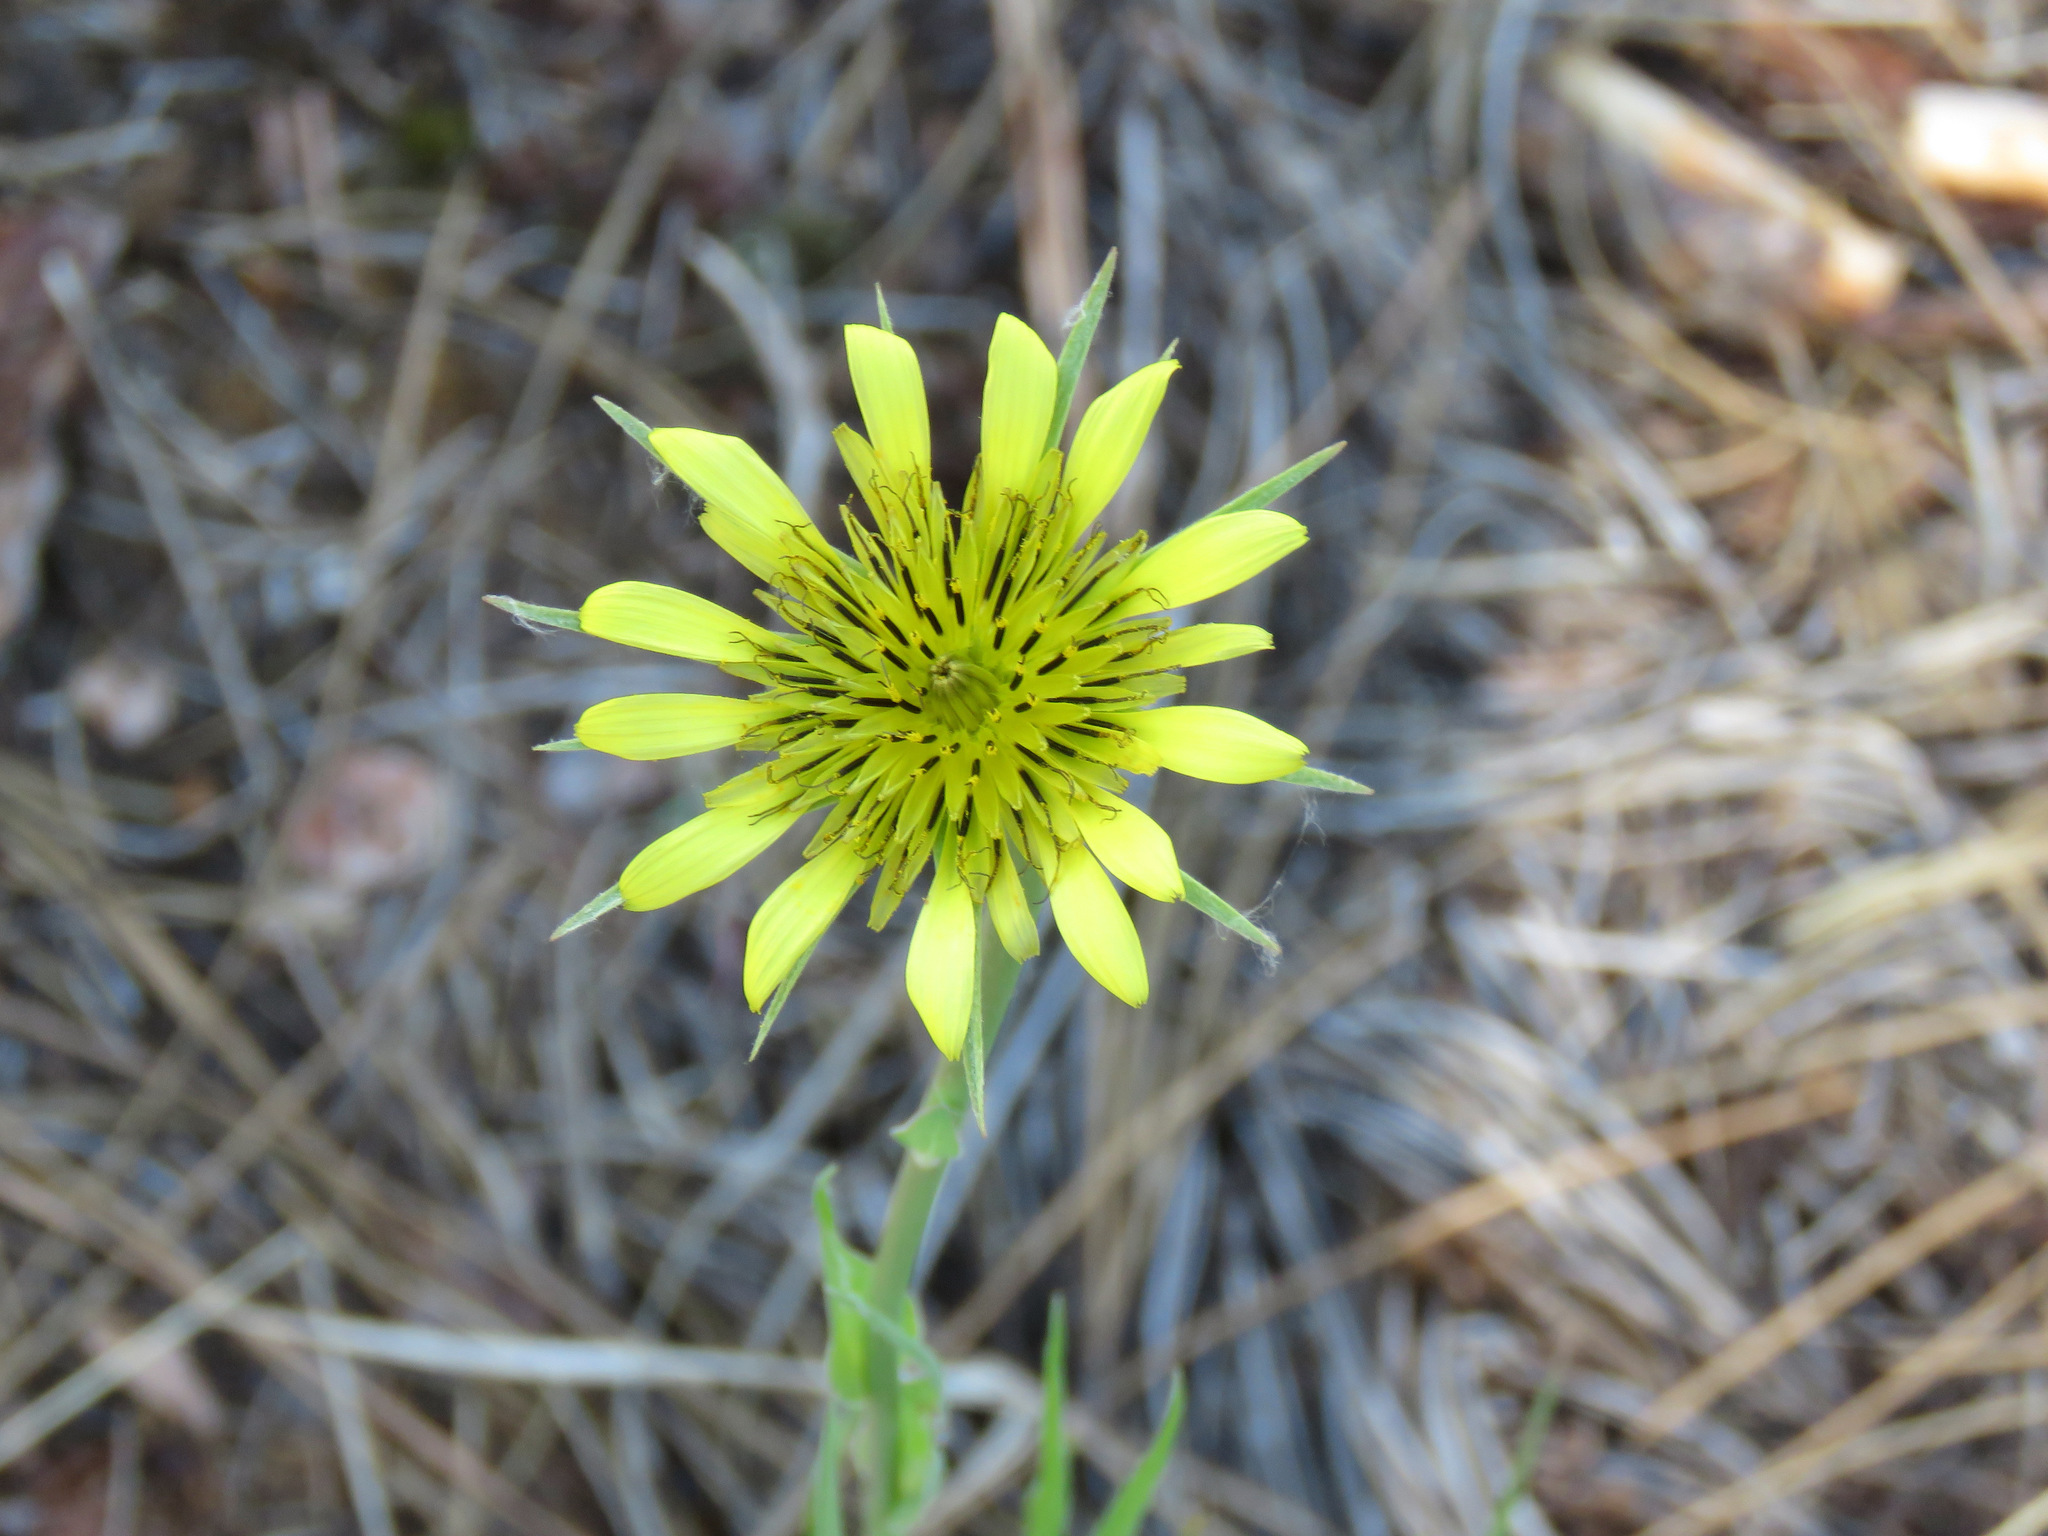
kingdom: Plantae
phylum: Tracheophyta
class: Magnoliopsida
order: Asterales
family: Asteraceae
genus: Tragopogon
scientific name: Tragopogon dubius
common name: Yellow salsify
